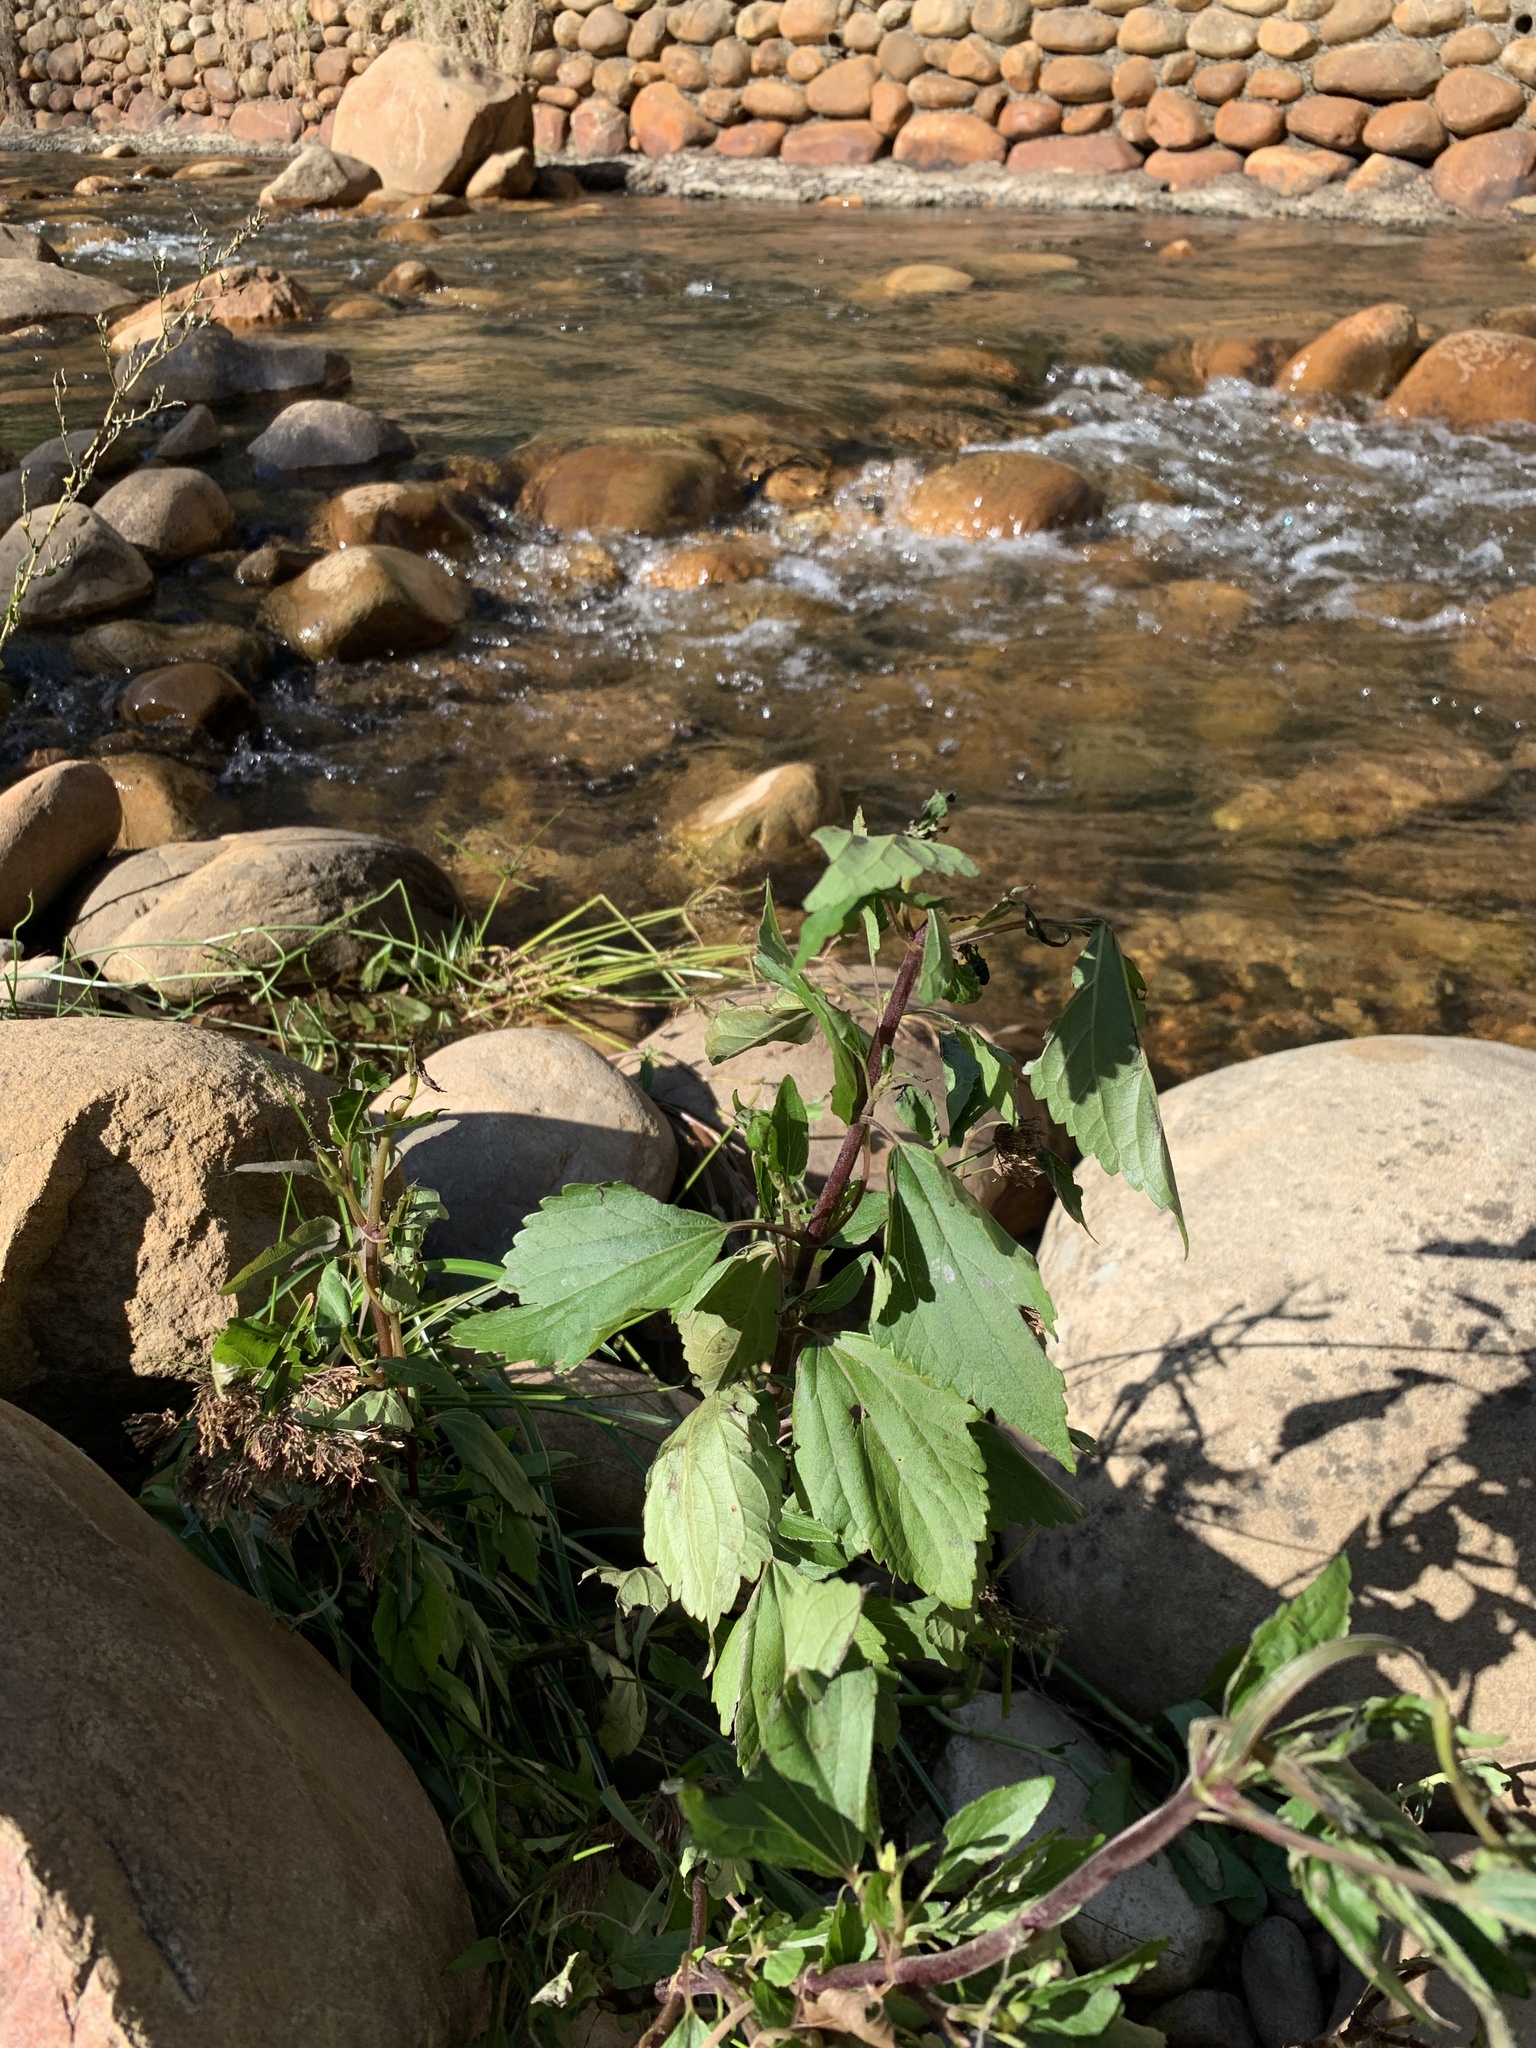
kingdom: Plantae
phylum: Tracheophyta
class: Magnoliopsida
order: Asterales
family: Asteraceae
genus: Ageratina
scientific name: Ageratina adenophora
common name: Sticky snakeroot
